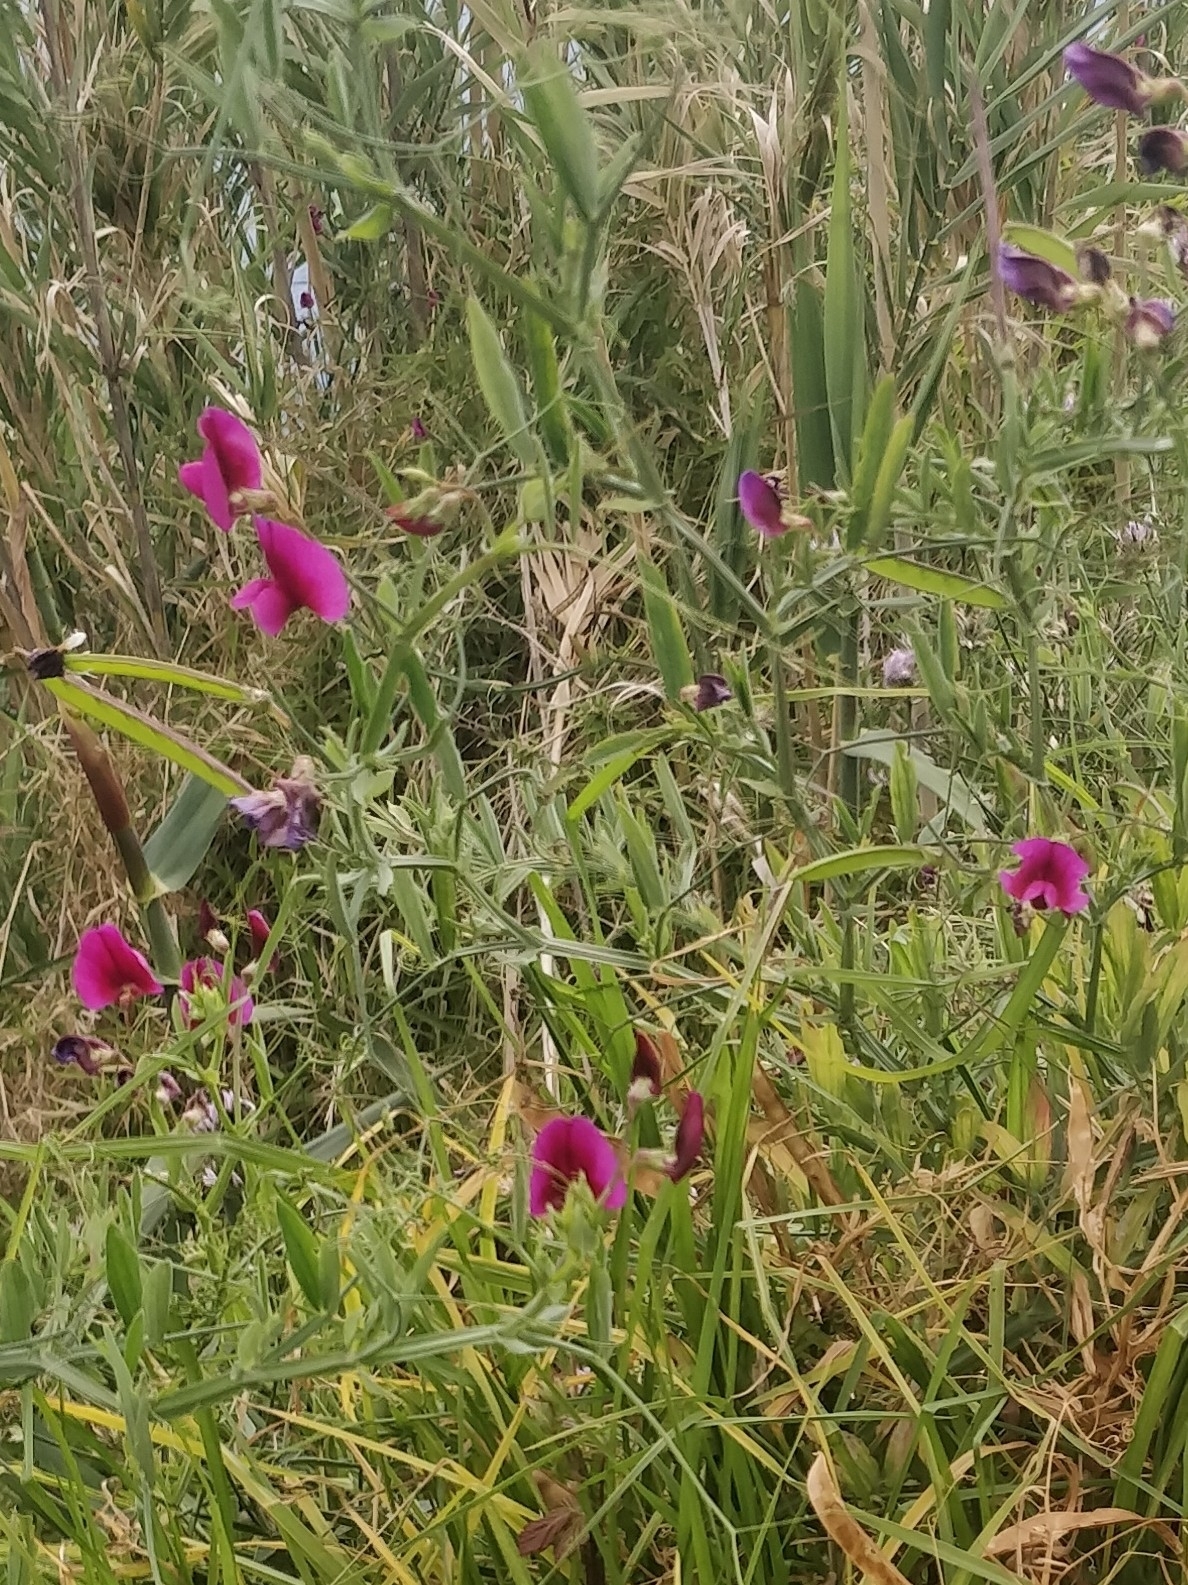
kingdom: Plantae
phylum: Tracheophyta
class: Magnoliopsida
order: Fabales
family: Fabaceae
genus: Lathyrus
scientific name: Lathyrus tingitanus
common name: Tangier pea
